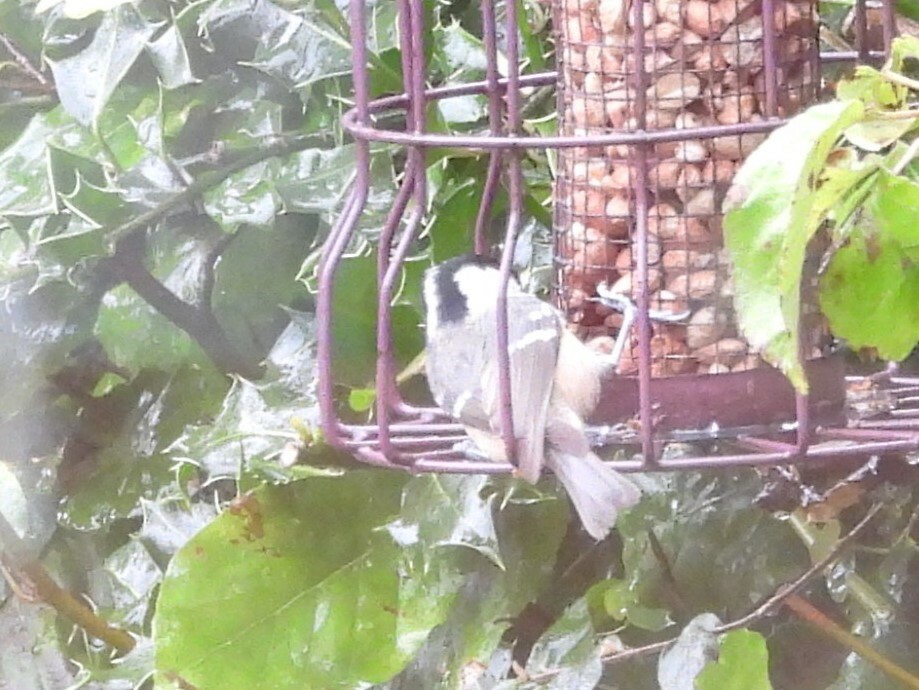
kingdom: Animalia
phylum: Chordata
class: Aves
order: Passeriformes
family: Paridae
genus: Periparus
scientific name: Periparus ater
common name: Coal tit
